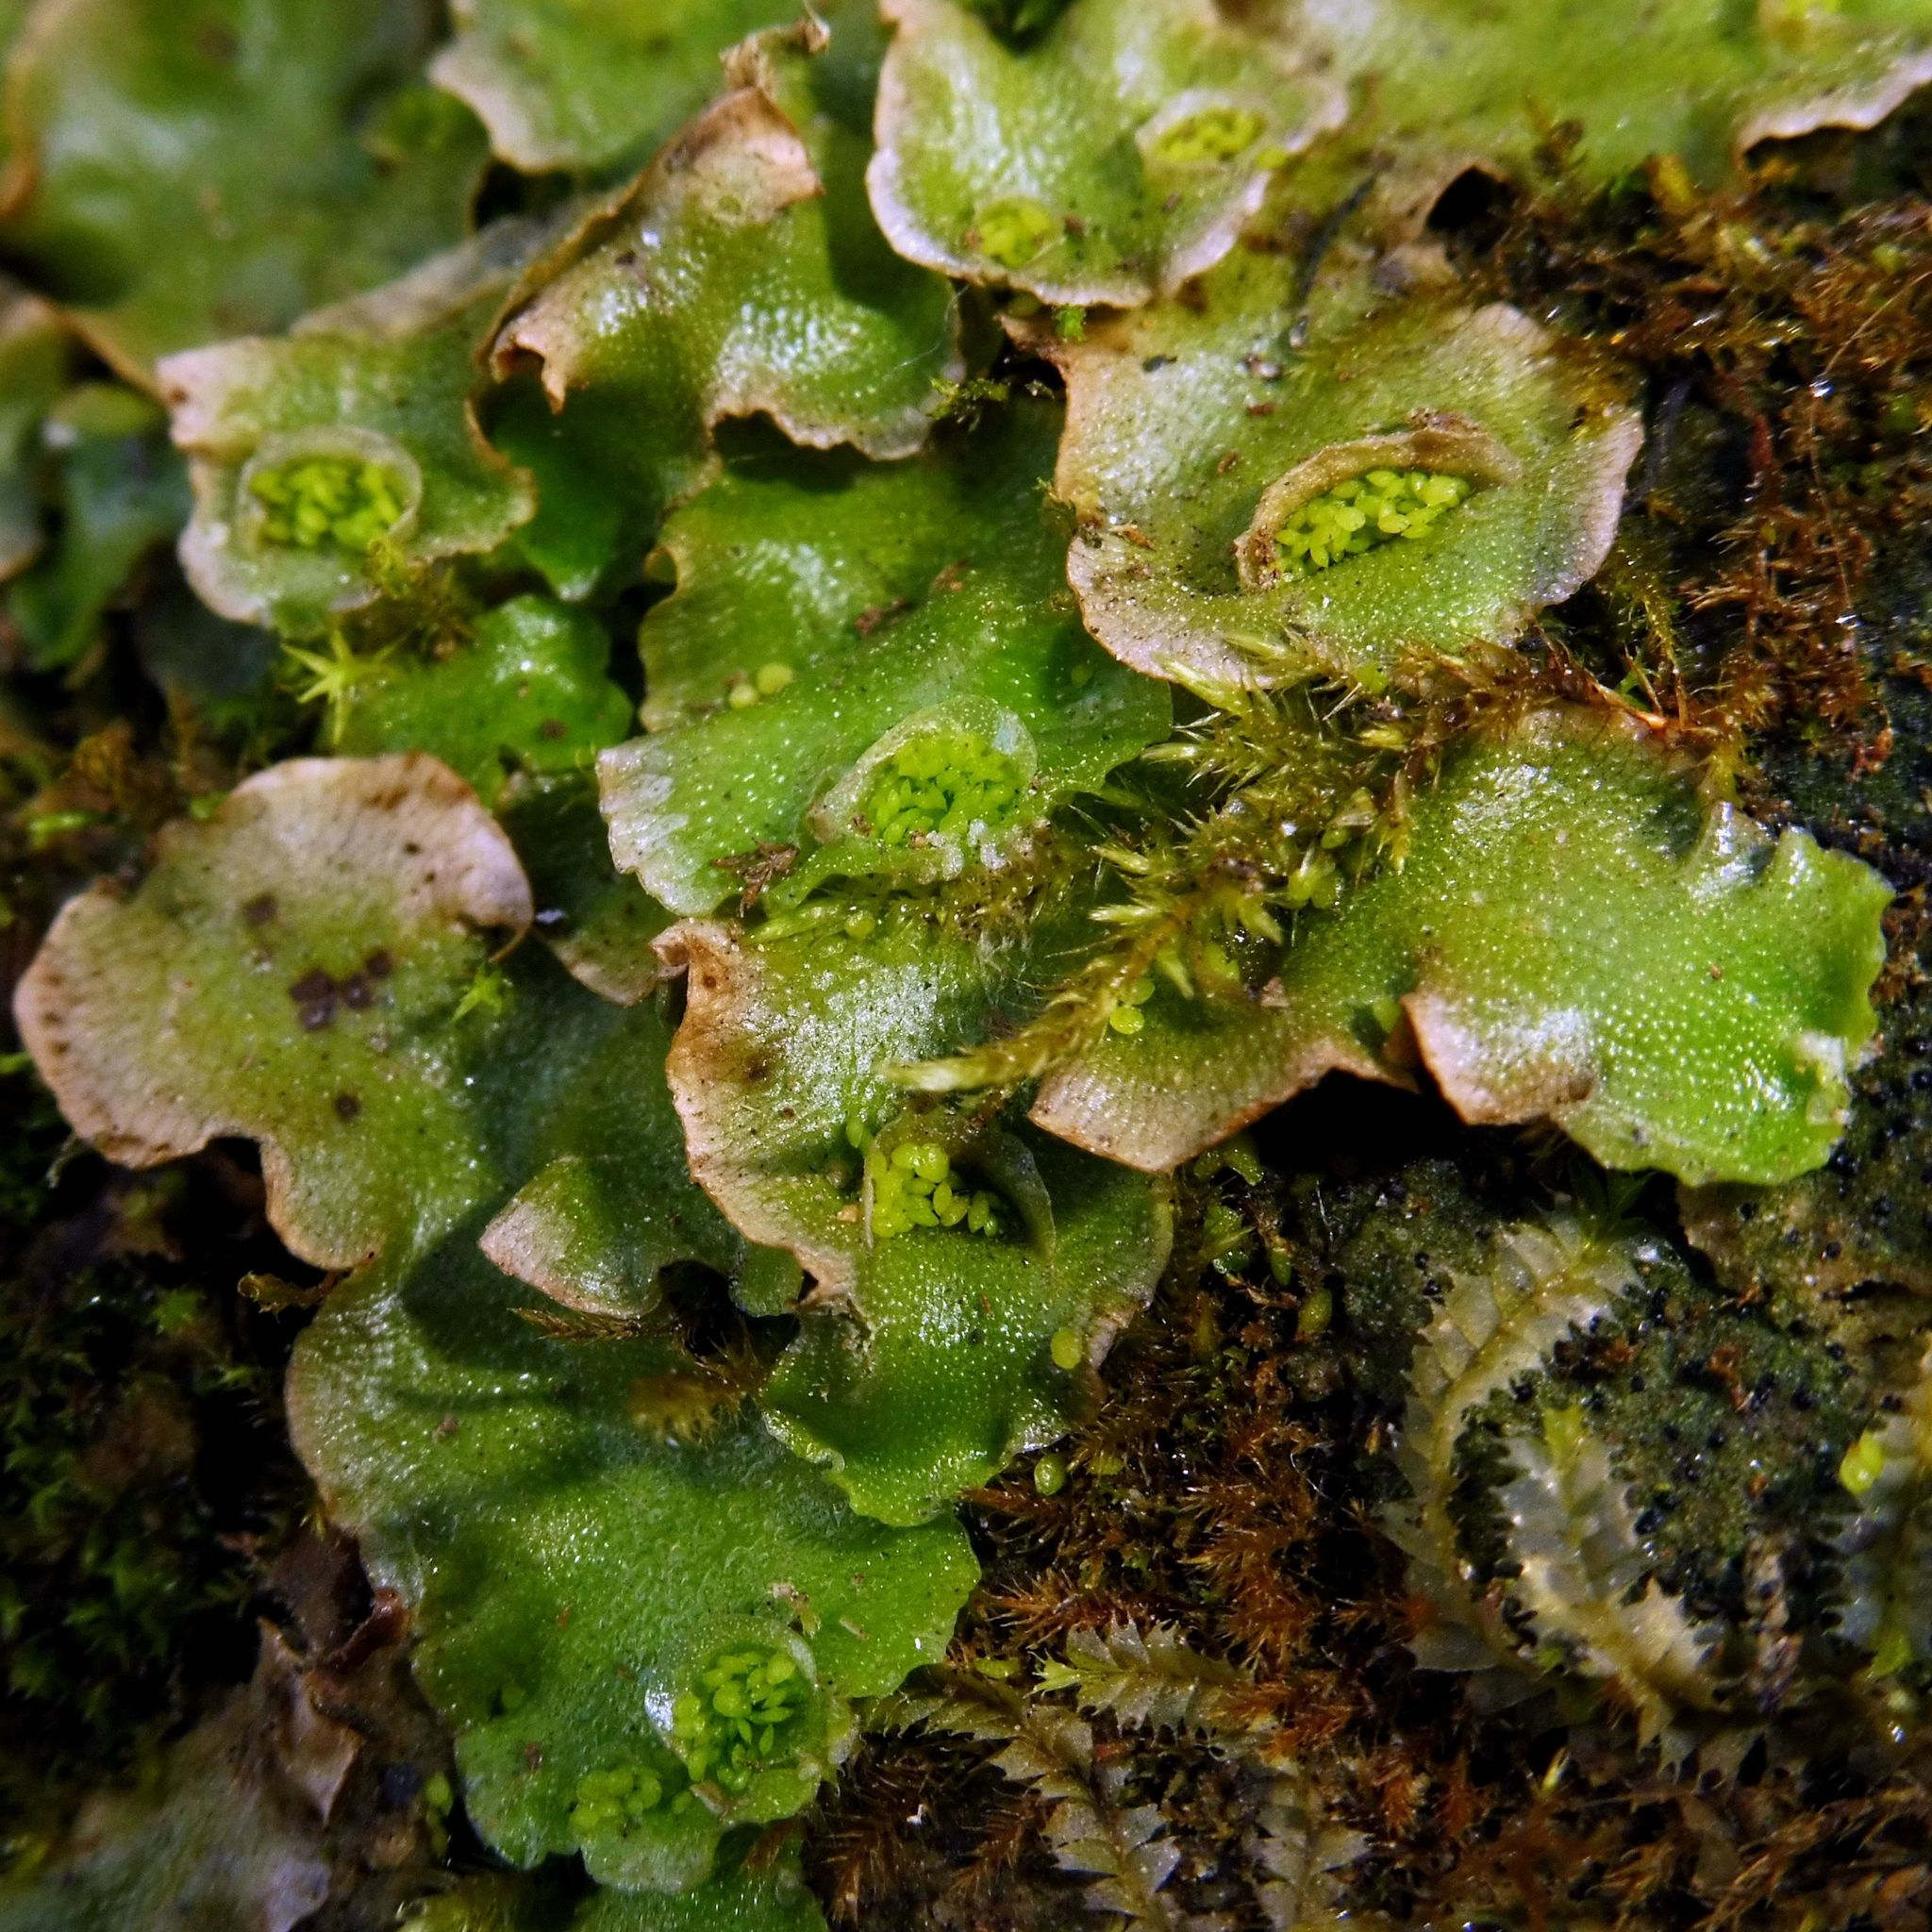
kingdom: Plantae
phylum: Marchantiophyta
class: Marchantiopsida
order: Lunulariales
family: Lunulariaceae
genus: Lunularia
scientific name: Lunularia cruciata
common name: Crescent-cup liverwort
